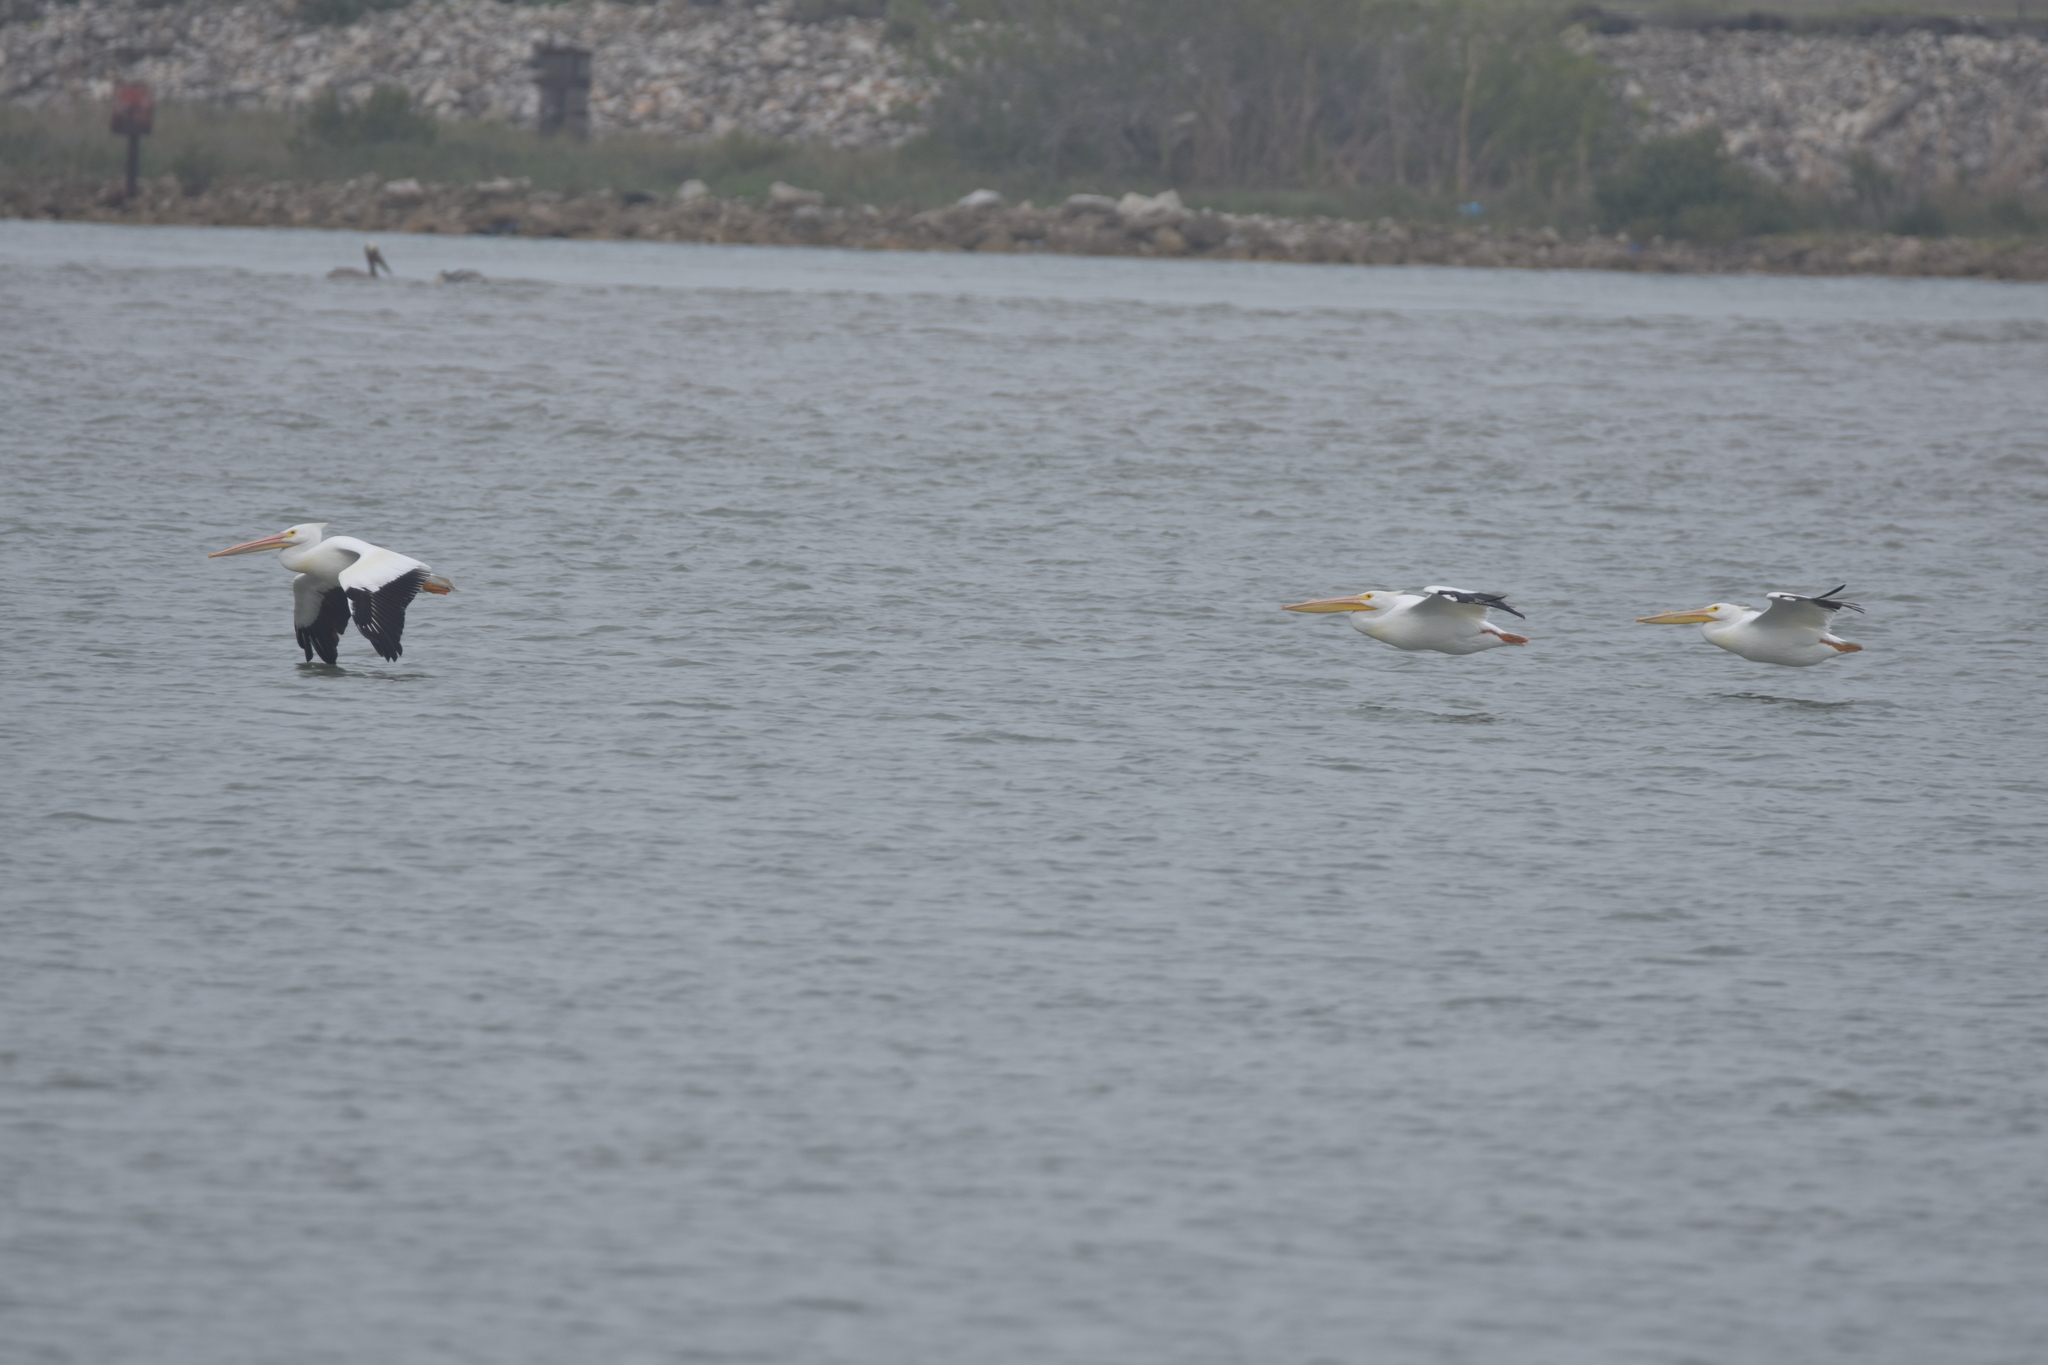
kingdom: Animalia
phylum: Chordata
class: Aves
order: Pelecaniformes
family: Pelecanidae
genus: Pelecanus
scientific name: Pelecanus erythrorhynchos
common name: American white pelican
